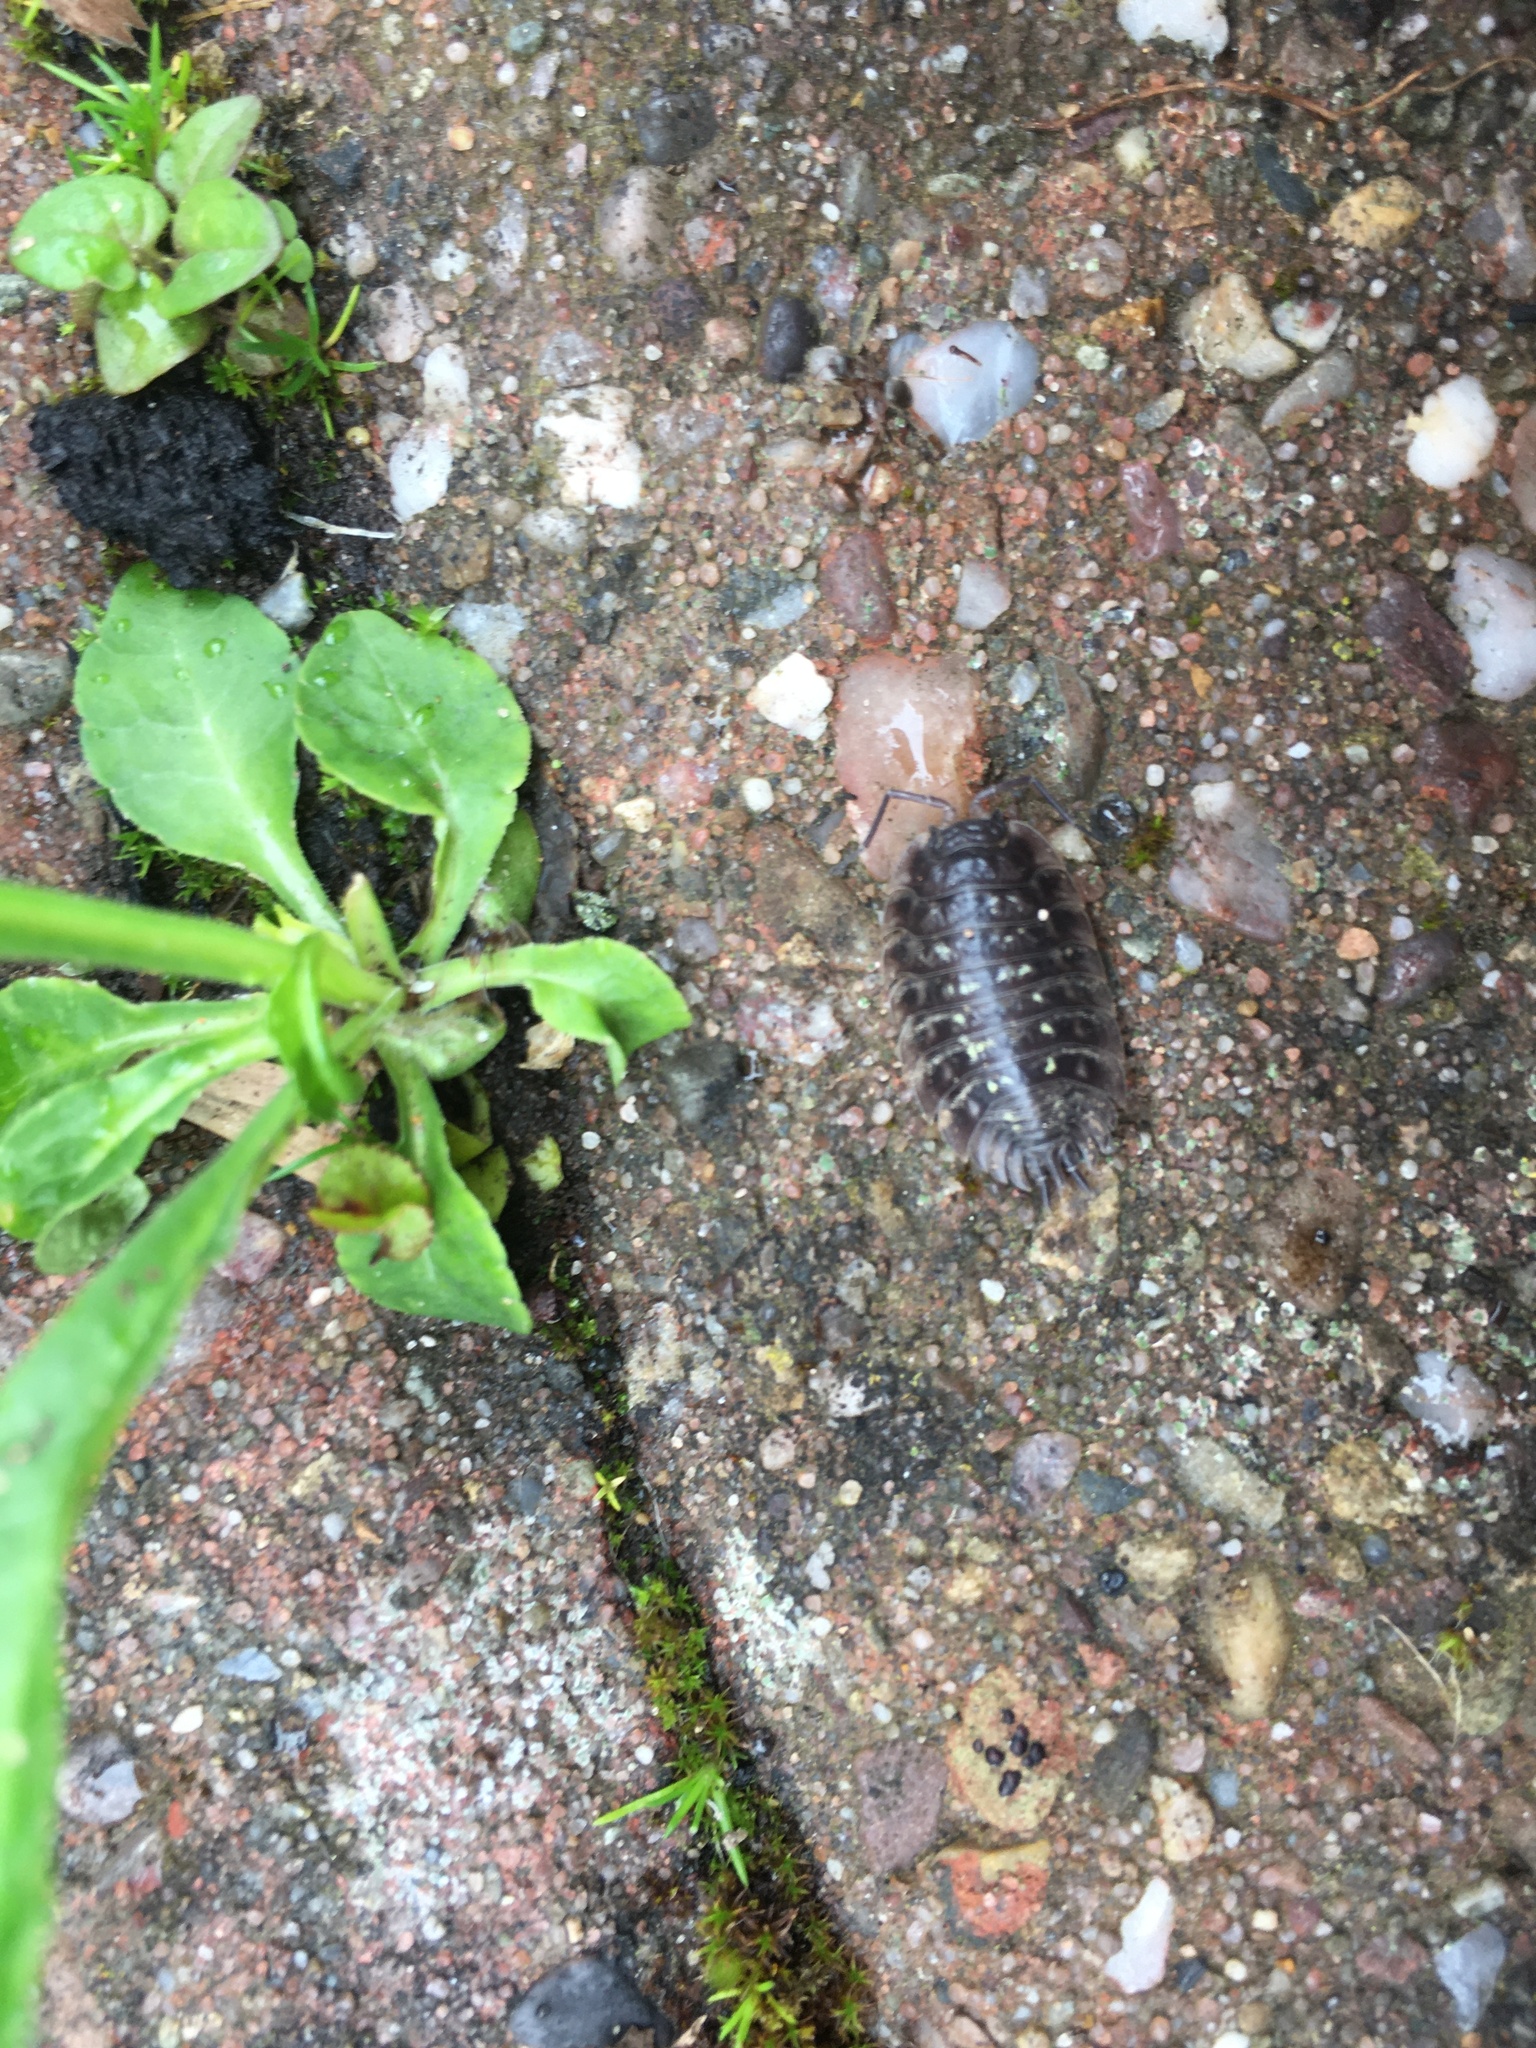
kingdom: Animalia
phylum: Arthropoda
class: Malacostraca
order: Isopoda
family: Oniscidae
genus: Oniscus
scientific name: Oniscus asellus
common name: Common shiny woodlouse
